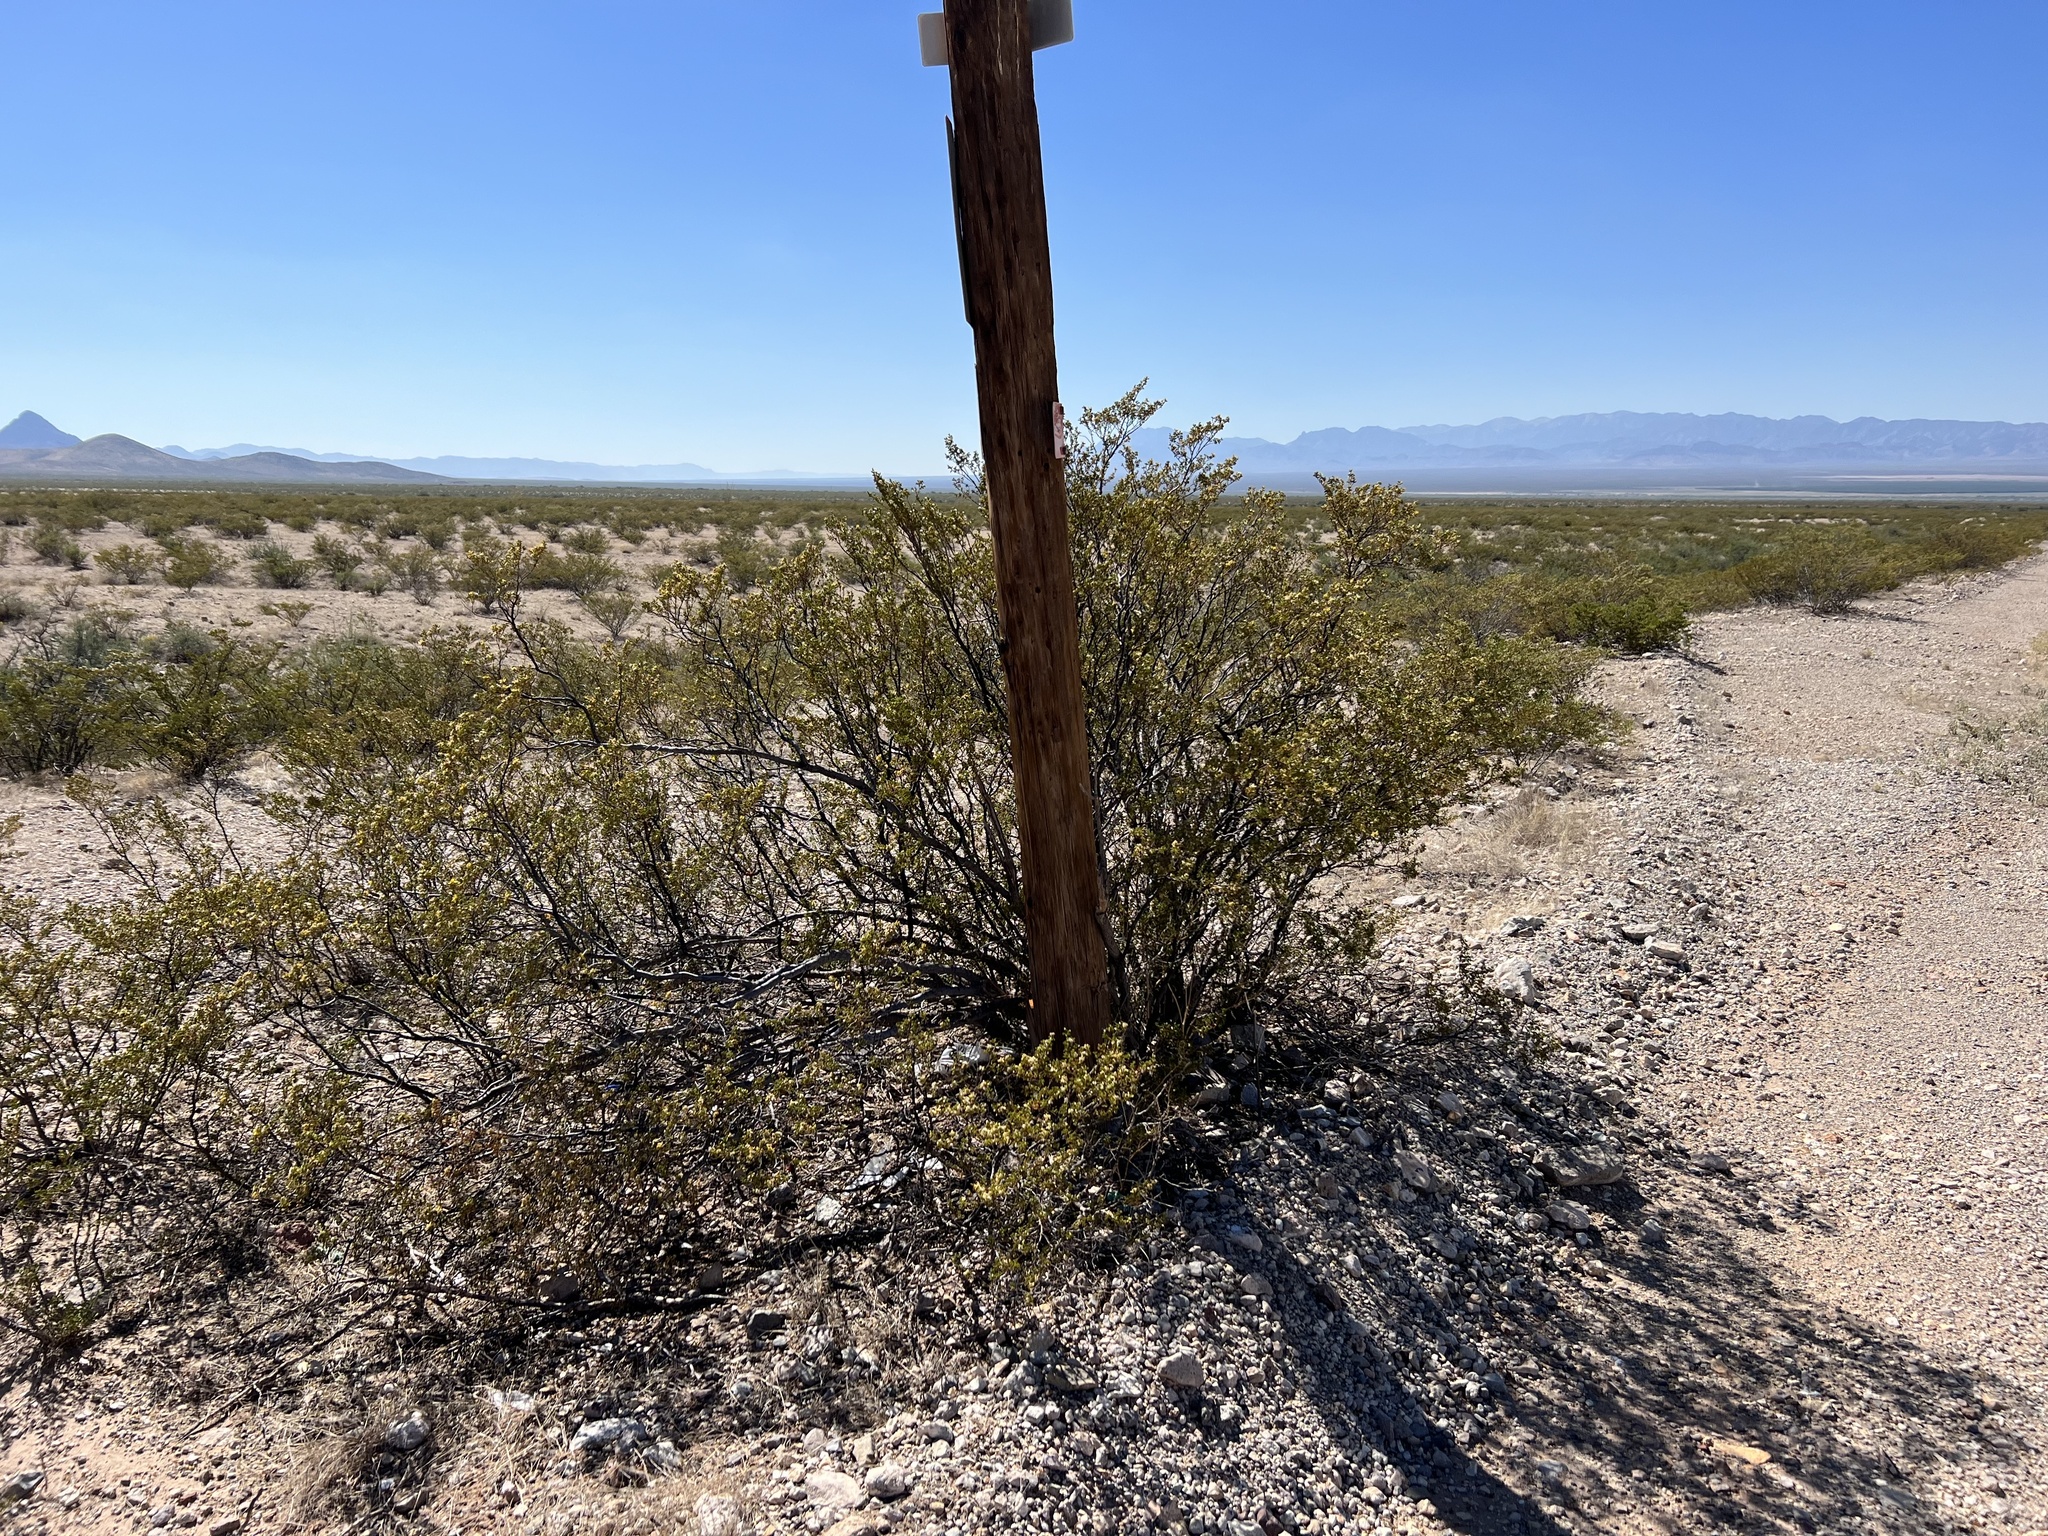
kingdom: Plantae
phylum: Tracheophyta
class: Magnoliopsida
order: Zygophyllales
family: Zygophyllaceae
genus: Larrea
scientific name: Larrea tridentata
